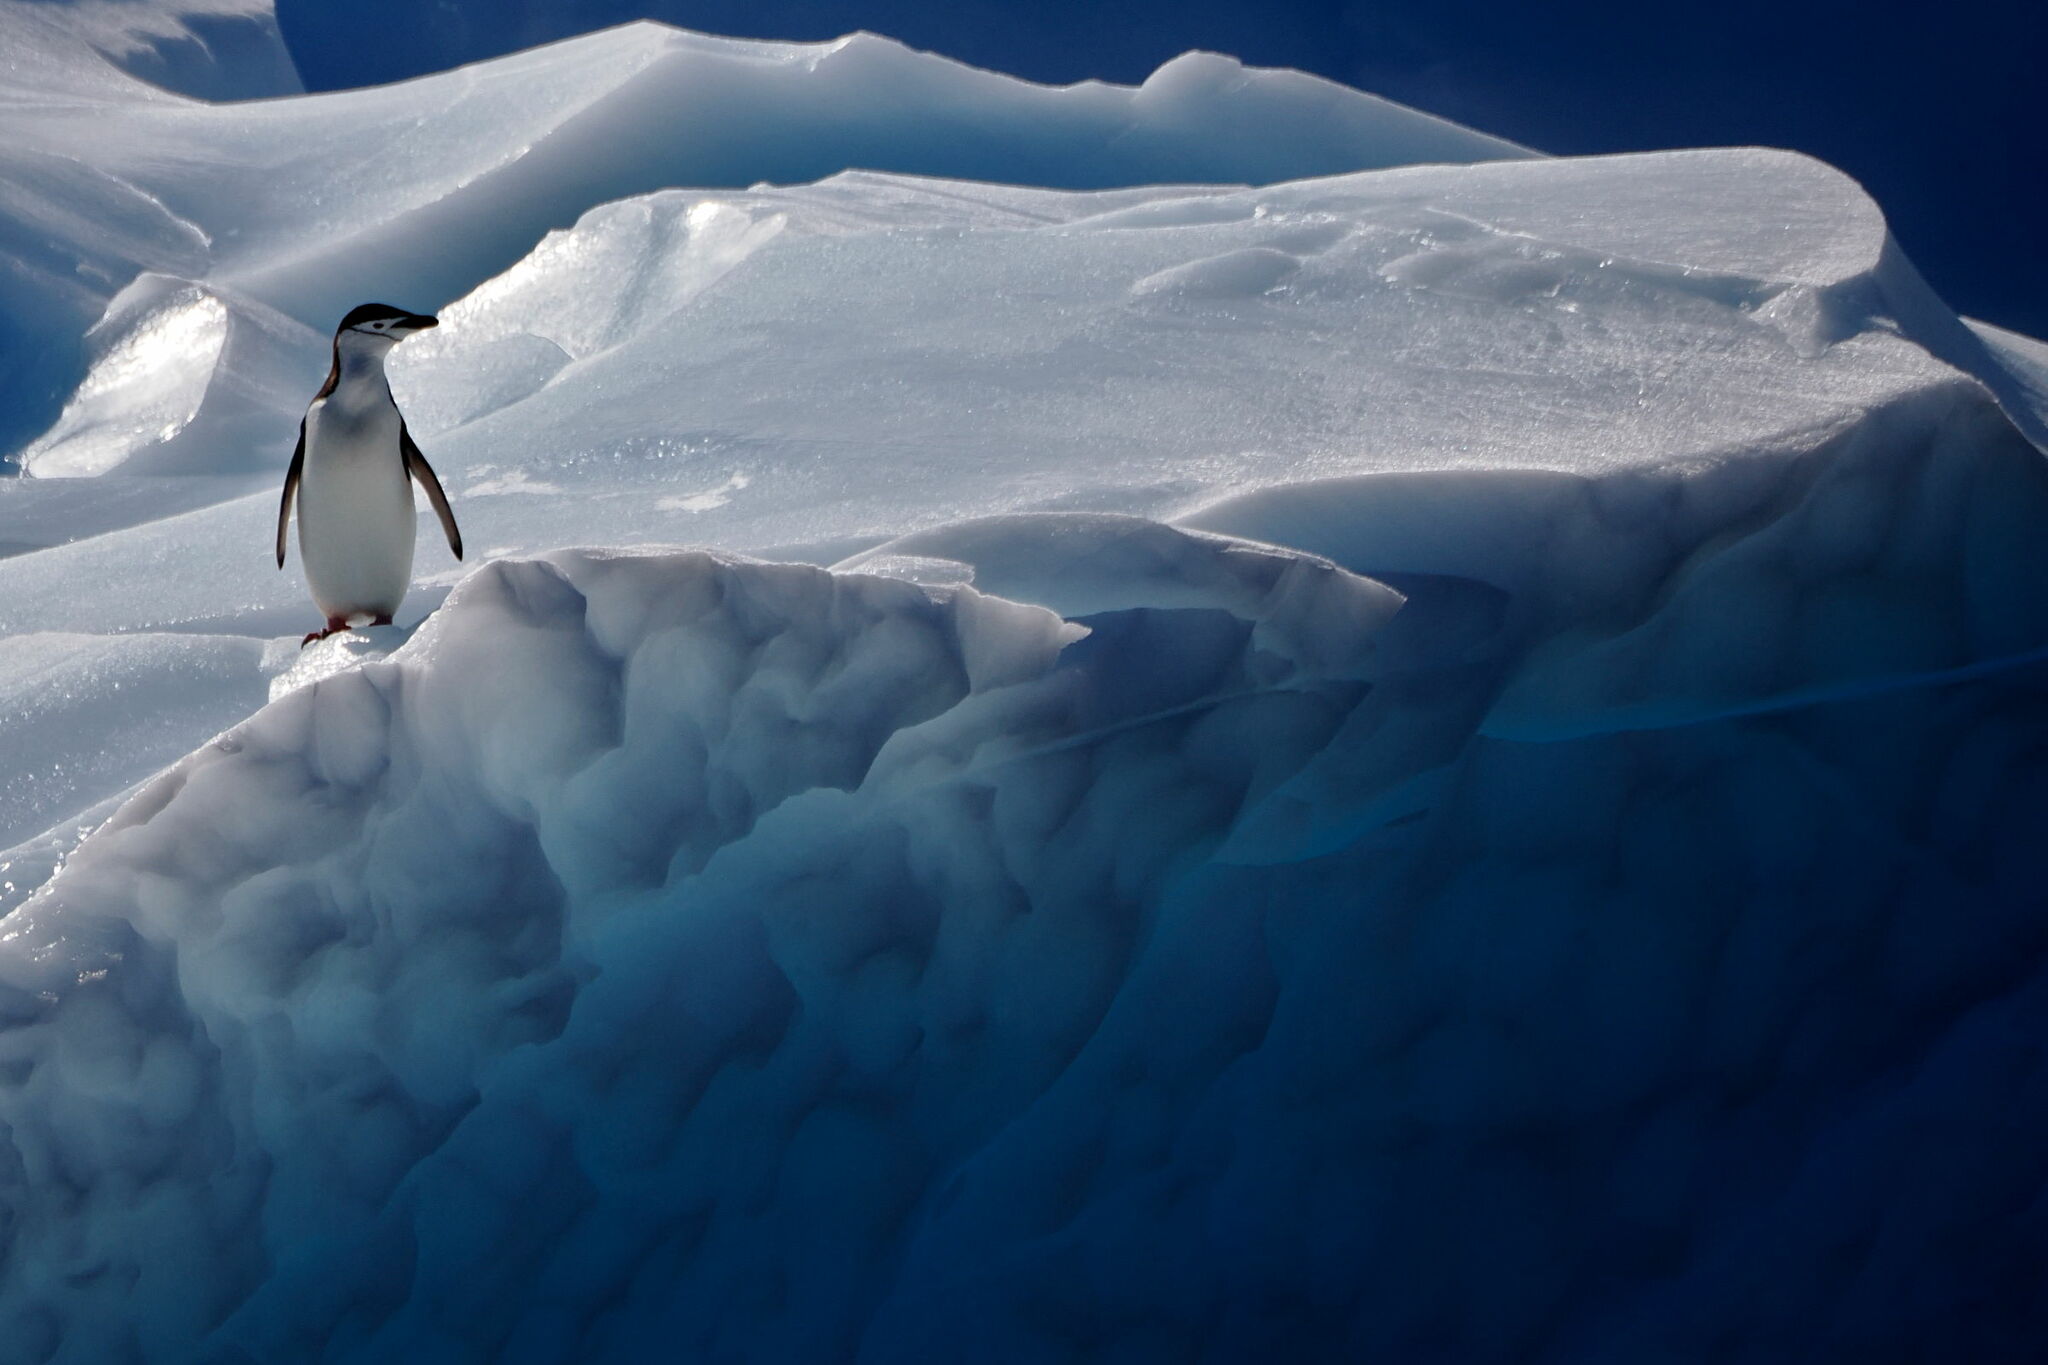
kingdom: Animalia
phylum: Chordata
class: Aves
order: Sphenisciformes
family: Spheniscidae
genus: Pygoscelis
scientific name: Pygoscelis antarcticus
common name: Chinstrap penguin
